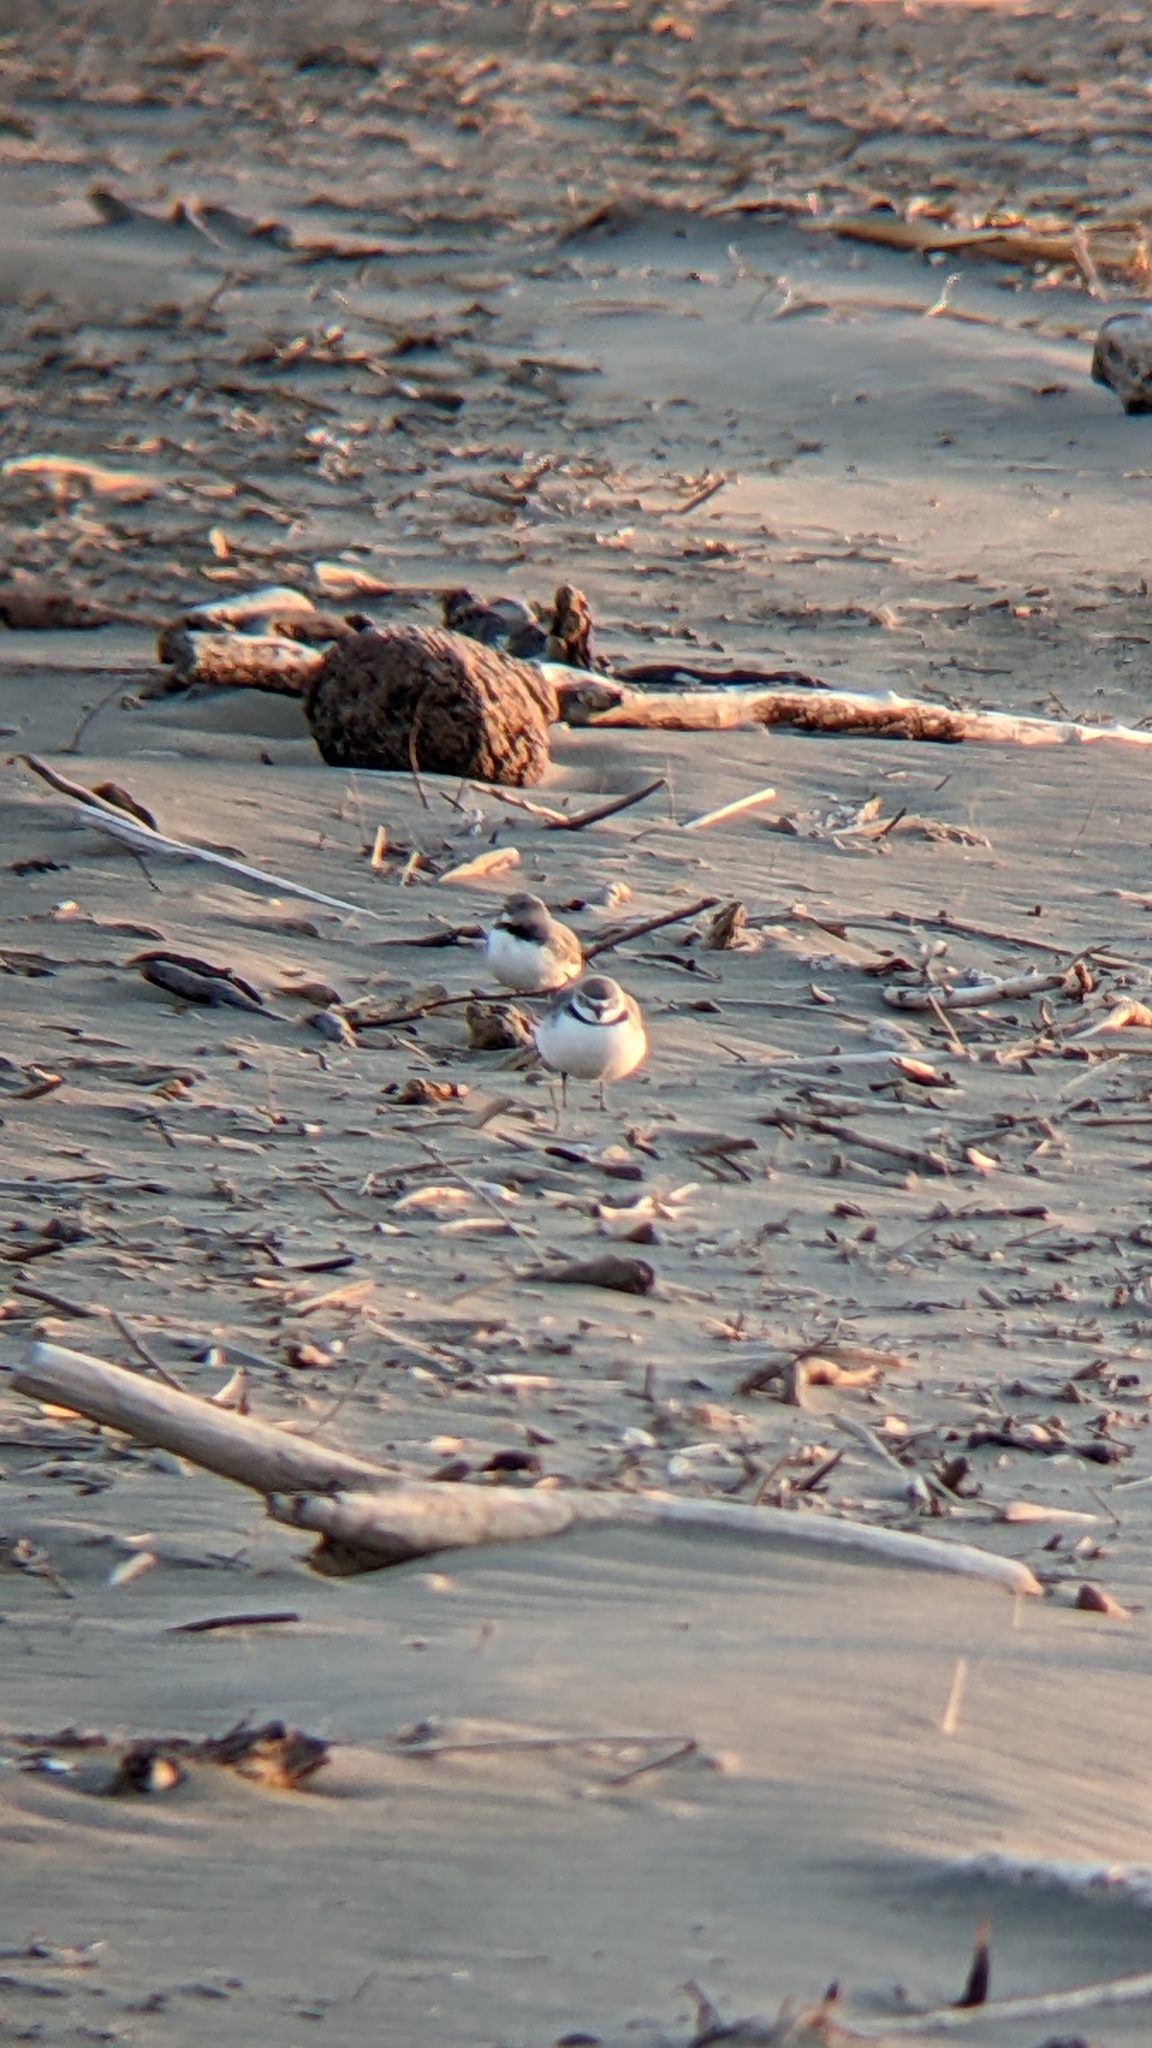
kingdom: Animalia
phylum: Chordata
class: Aves
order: Charadriiformes
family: Charadriidae
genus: Anarhynchus
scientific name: Anarhynchus frontalis
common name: Wrybill
